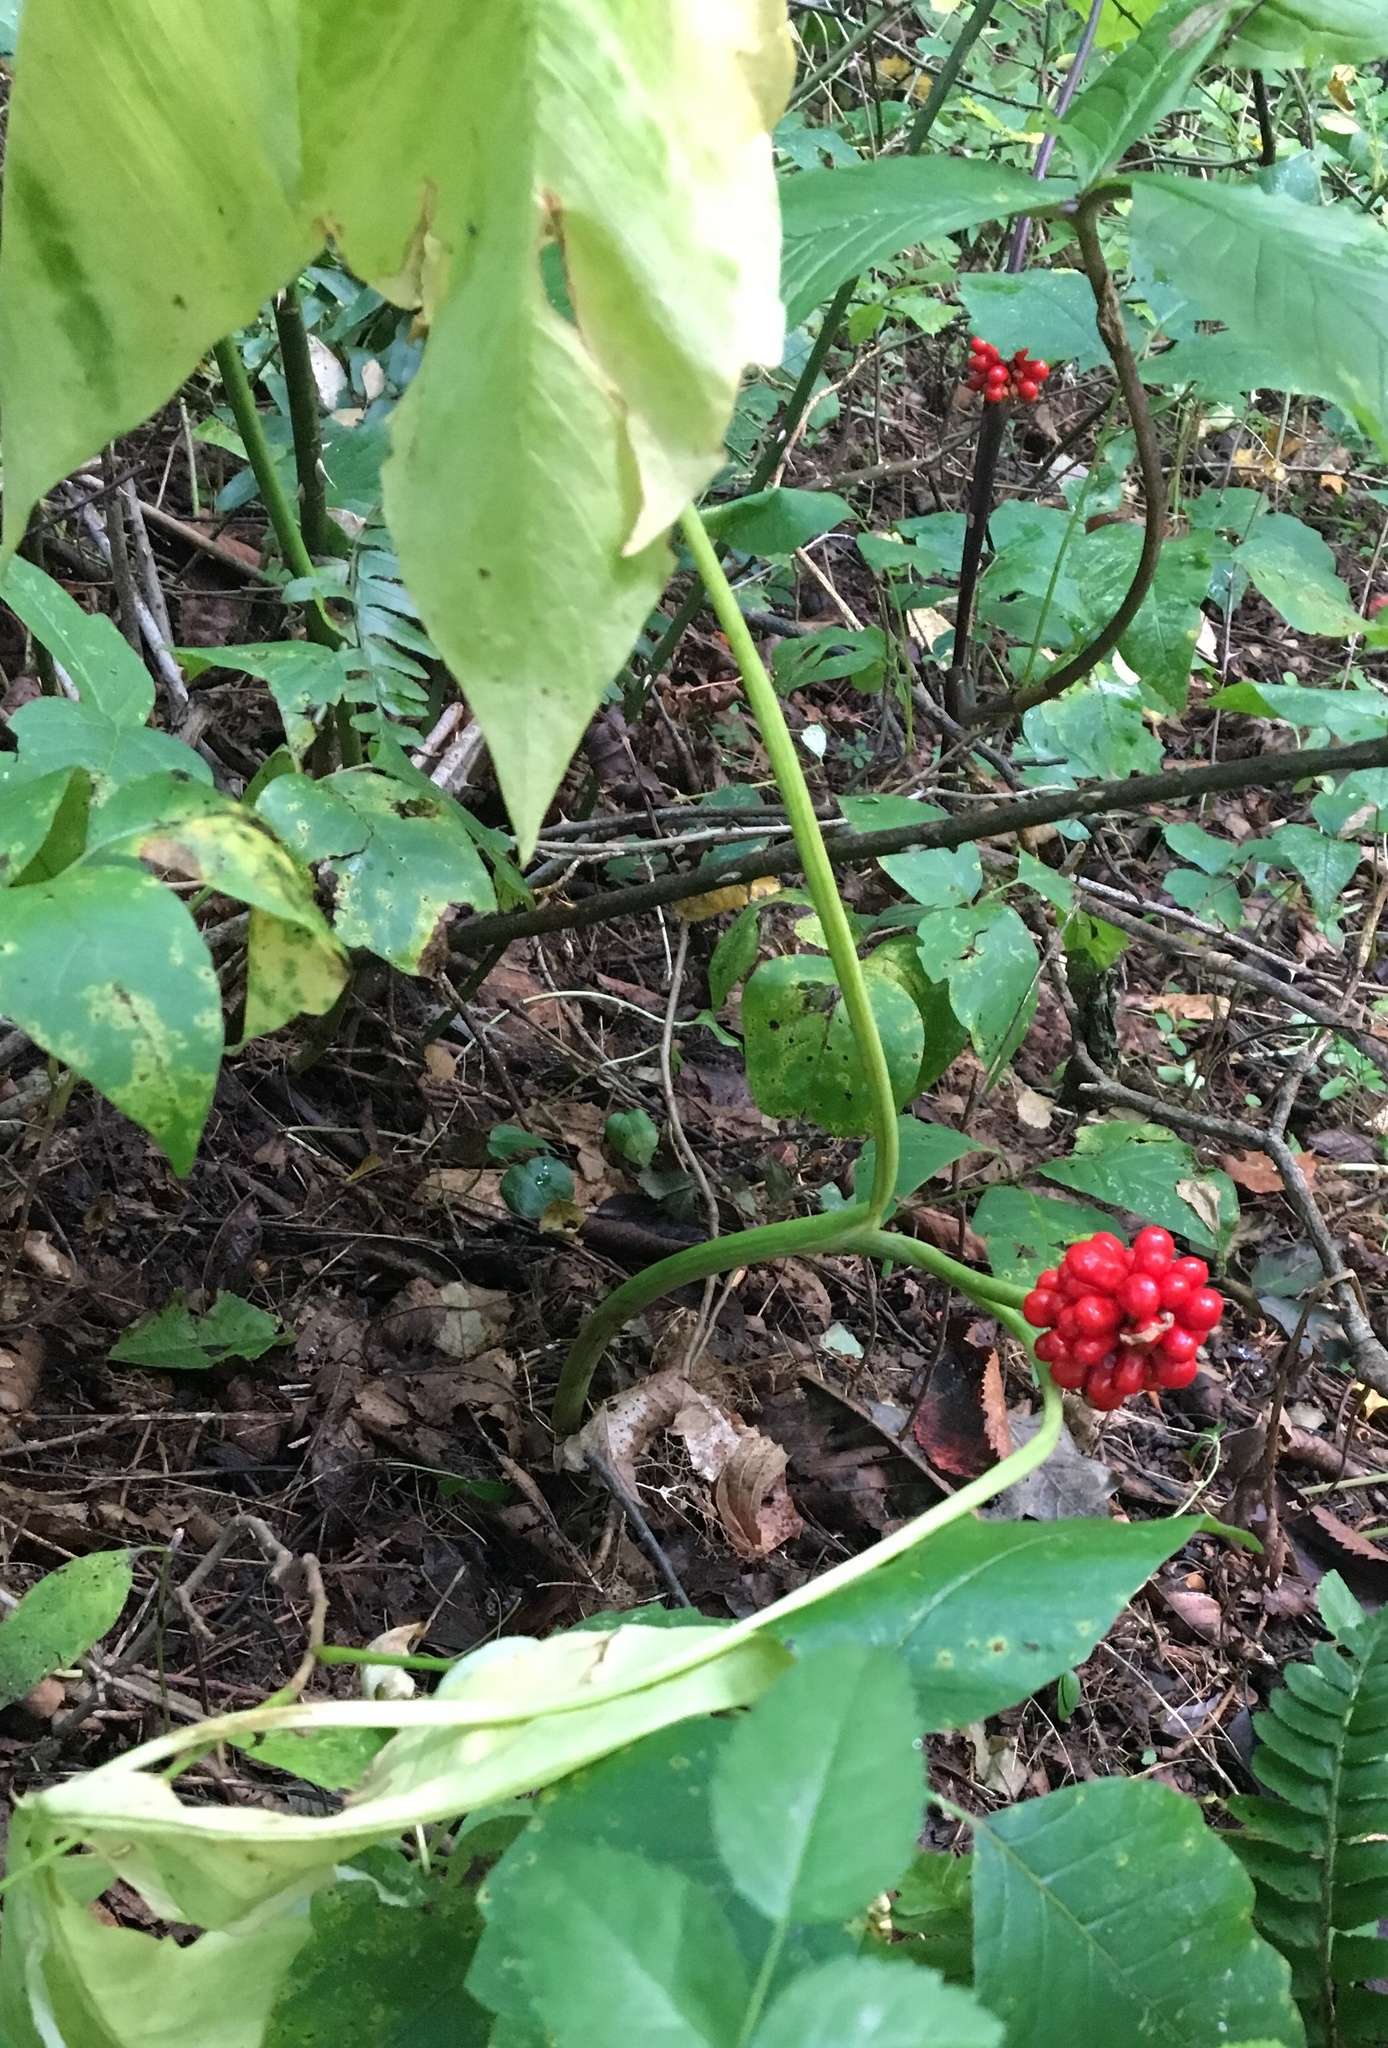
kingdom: Plantae
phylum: Tracheophyta
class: Liliopsida
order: Alismatales
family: Araceae
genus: Arisaema
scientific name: Arisaema triphyllum
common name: Jack-in-the-pulpit
